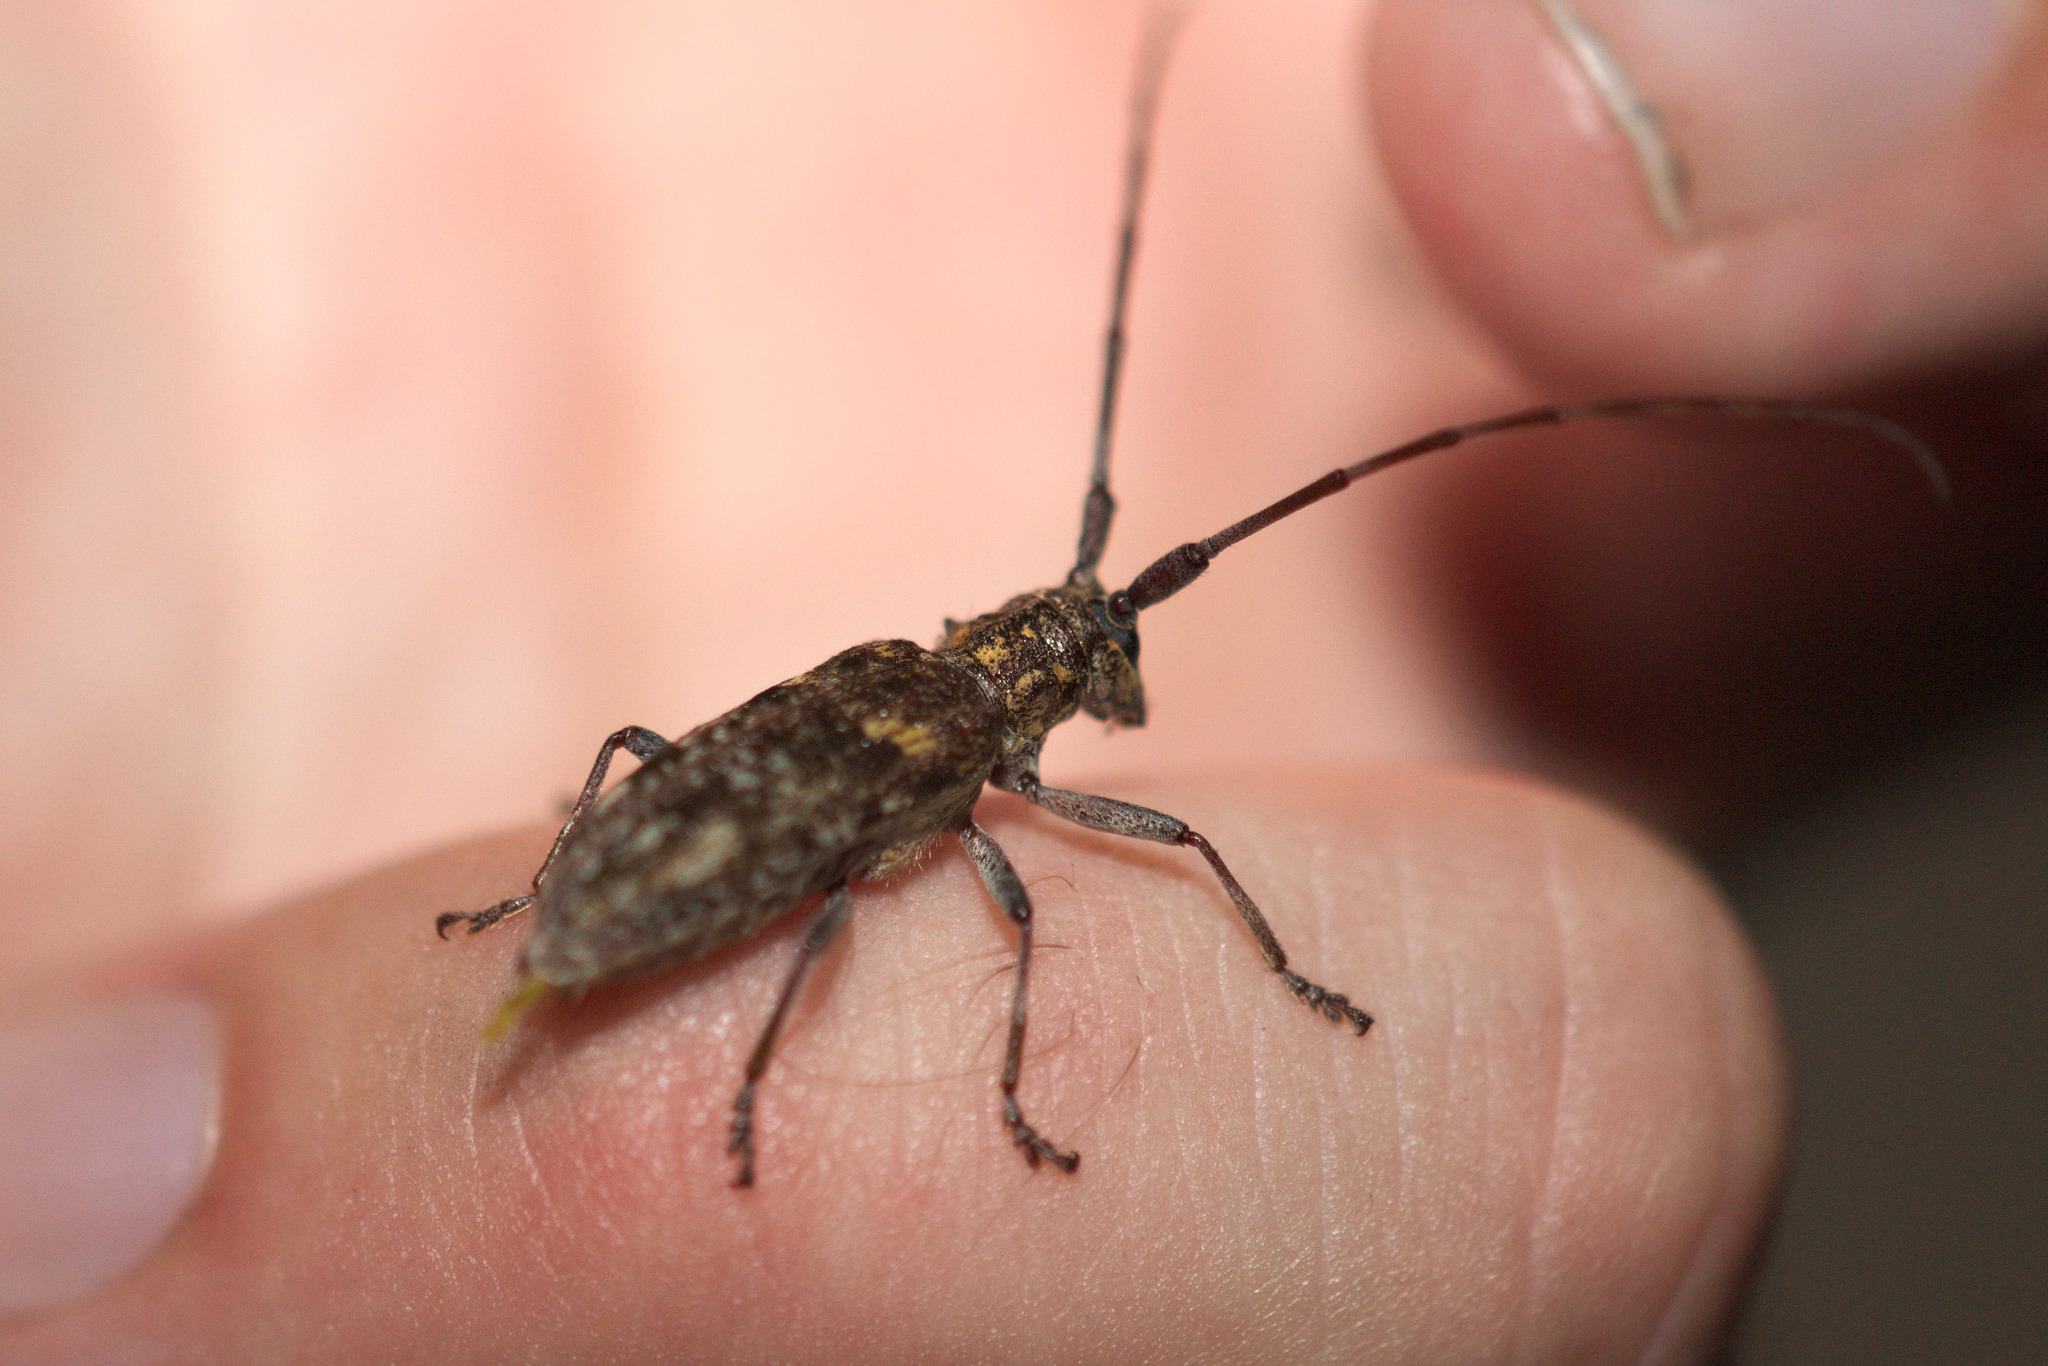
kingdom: Animalia
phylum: Arthropoda
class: Insecta
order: Coleoptera
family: Cerambycidae
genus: Monochamus
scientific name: Monochamus carolinensis
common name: Carolina pine sawyer
